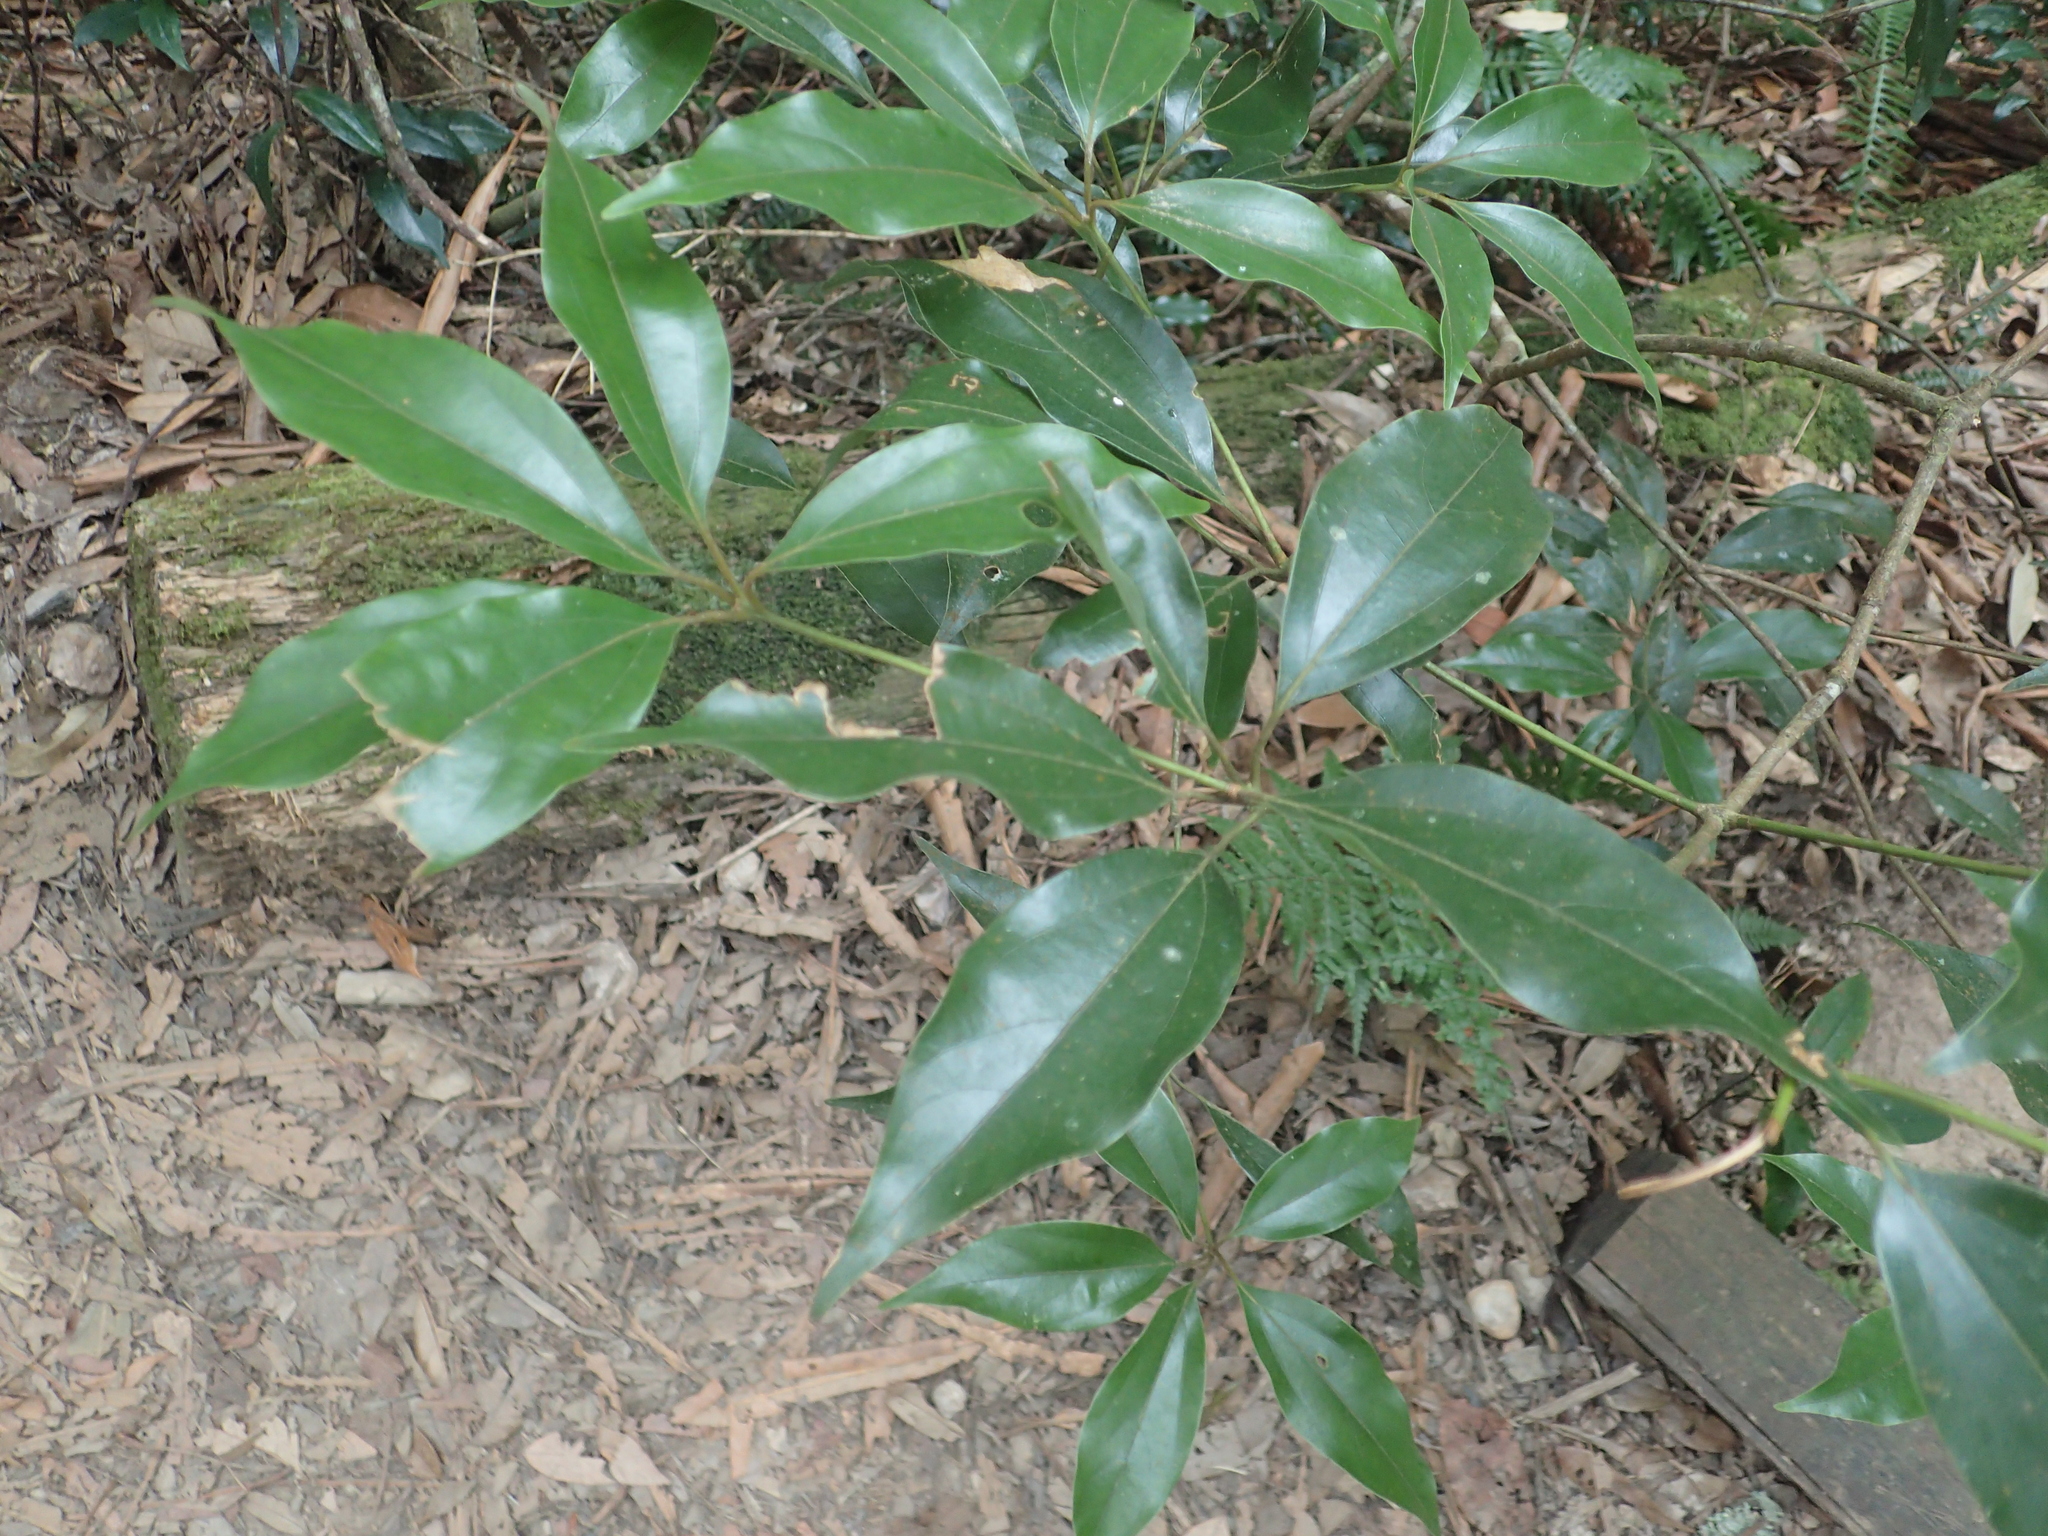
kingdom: Plantae
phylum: Tracheophyta
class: Magnoliopsida
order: Laurales
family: Lauraceae
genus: Neolitsea
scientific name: Neolitsea variabillima
